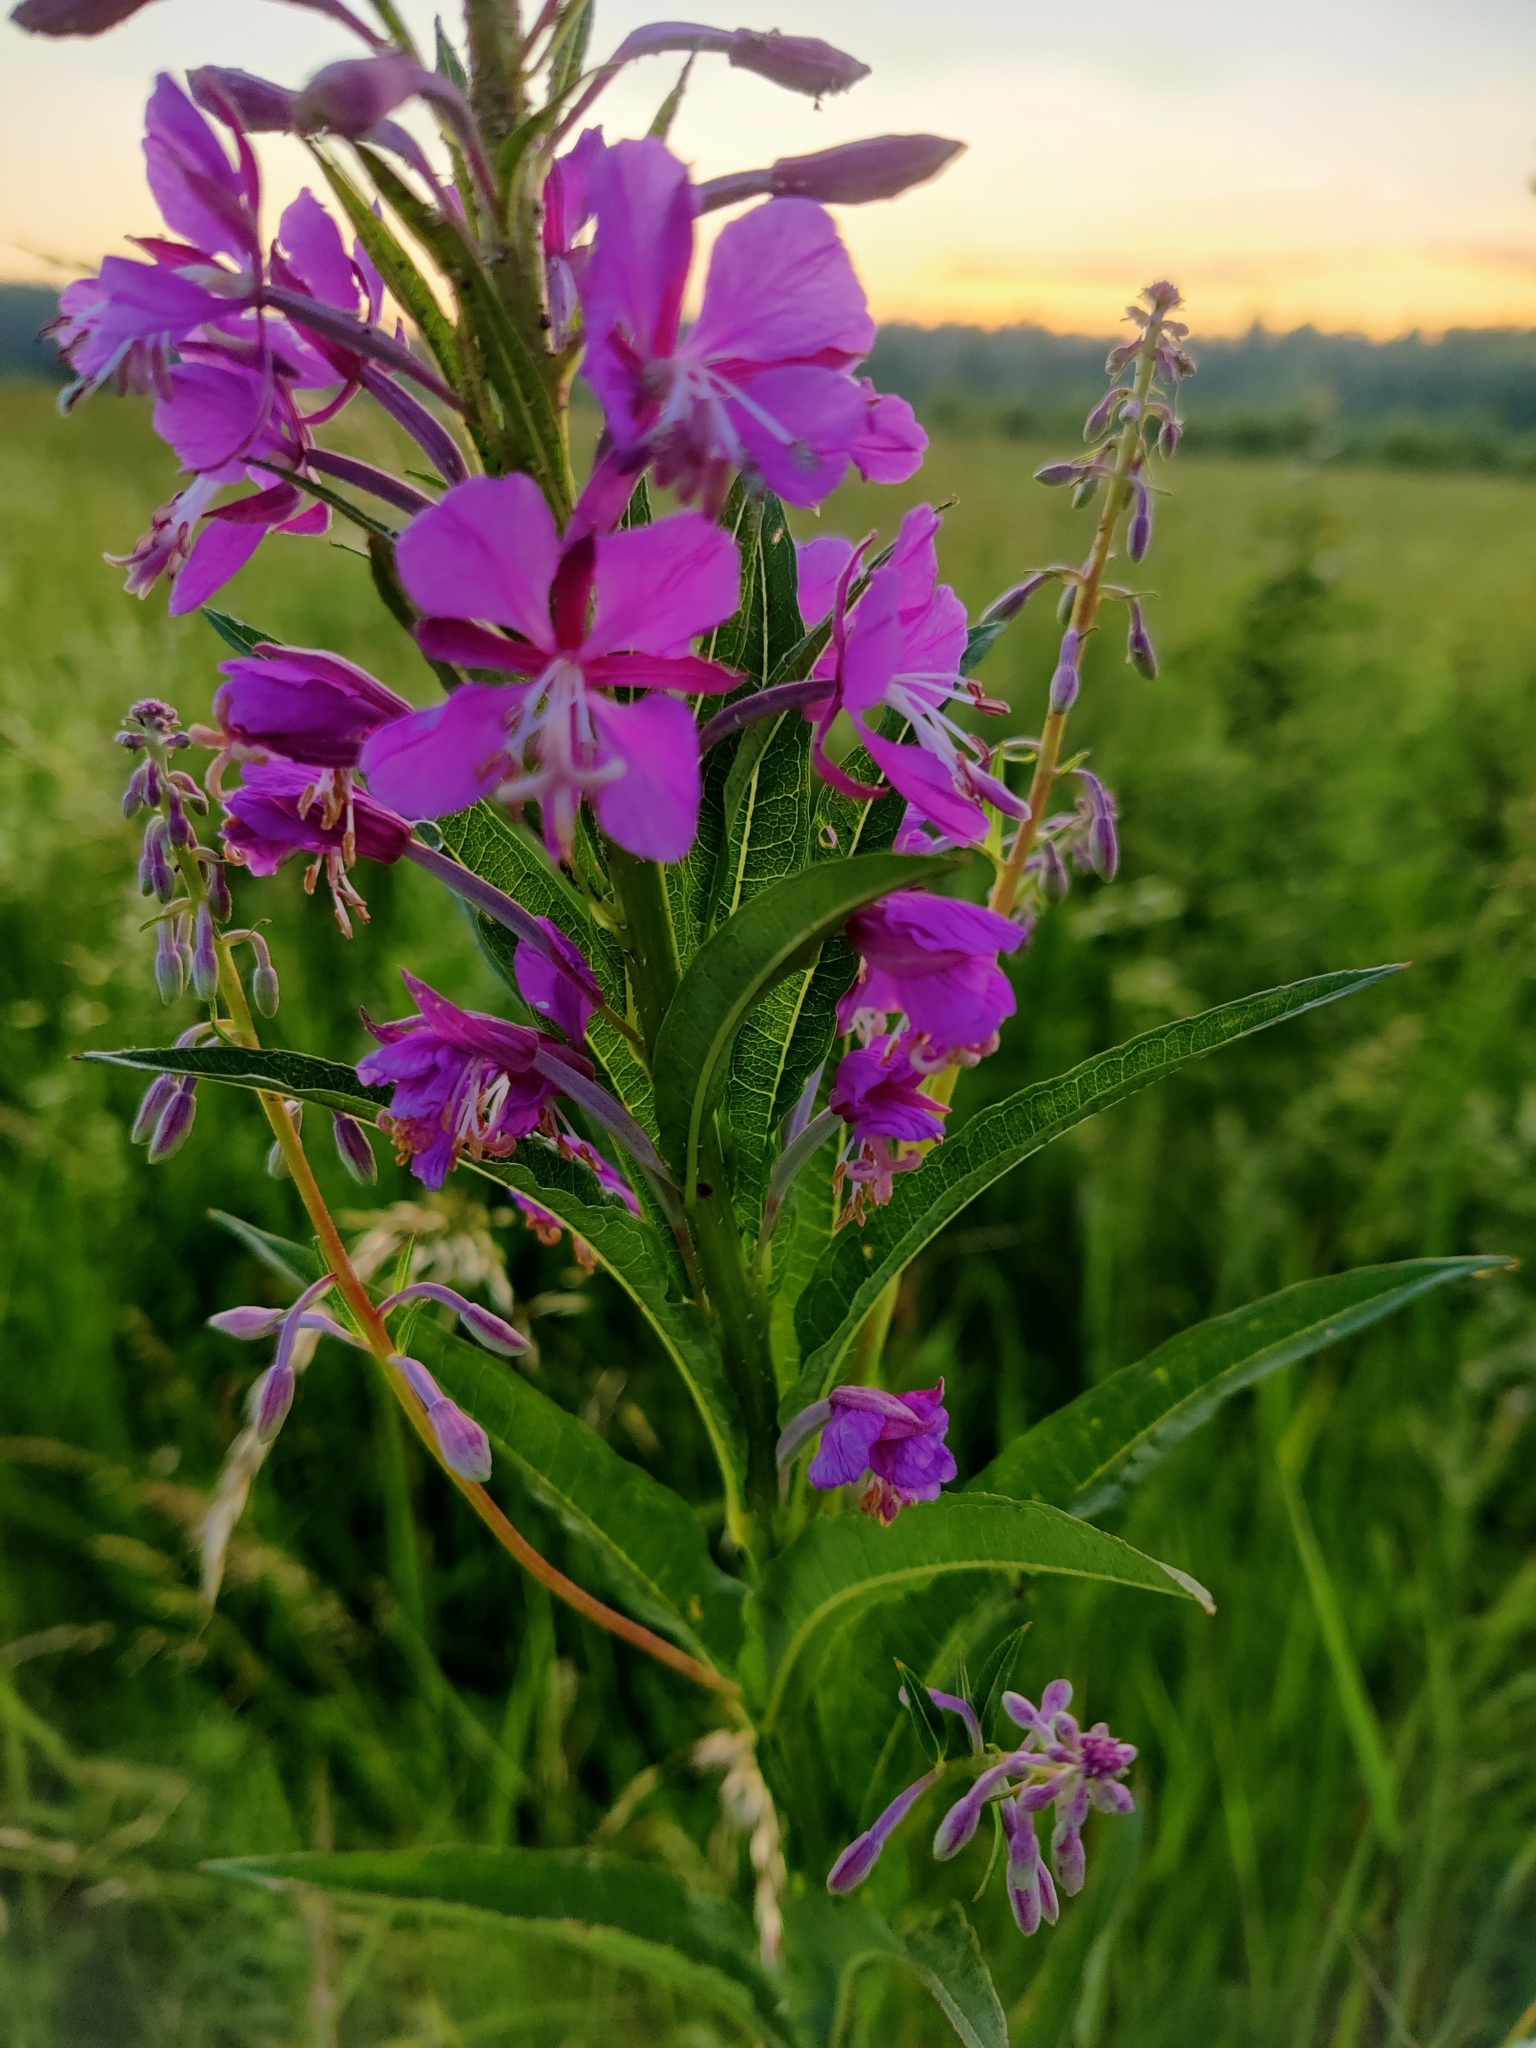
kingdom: Plantae
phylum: Tracheophyta
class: Magnoliopsida
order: Myrtales
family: Onagraceae
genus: Chamaenerion
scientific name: Chamaenerion angustifolium
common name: Fireweed
